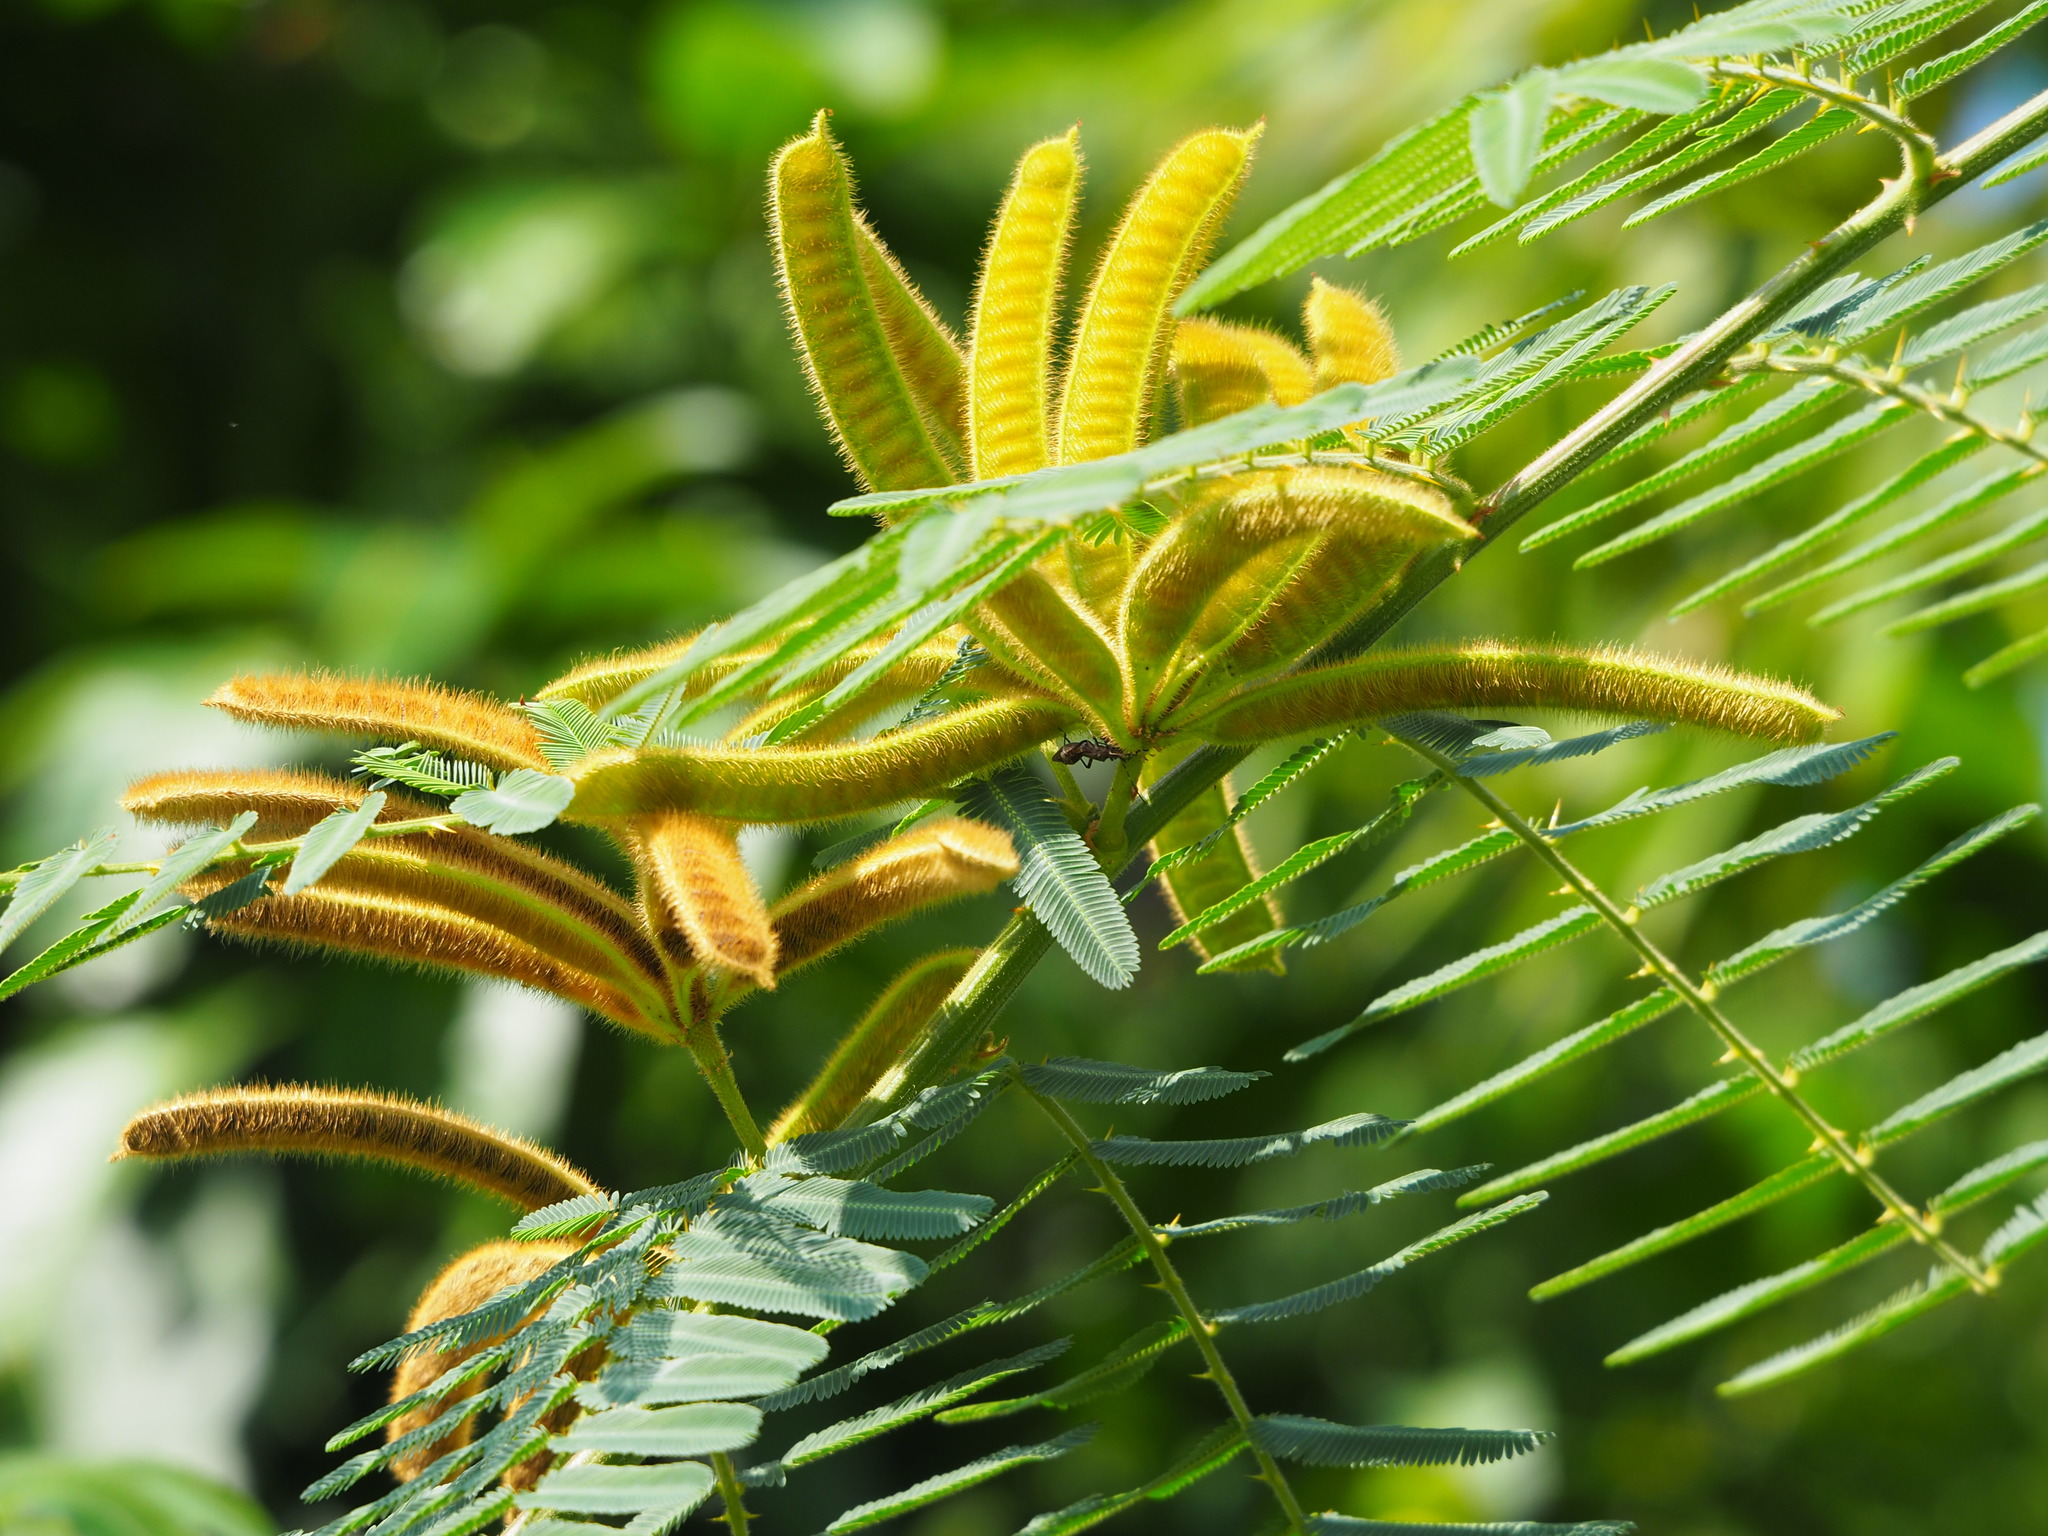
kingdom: Plantae
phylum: Tracheophyta
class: Magnoliopsida
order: Fabales
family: Fabaceae
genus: Mimosa
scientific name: Mimosa pigra
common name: Black mimosa
